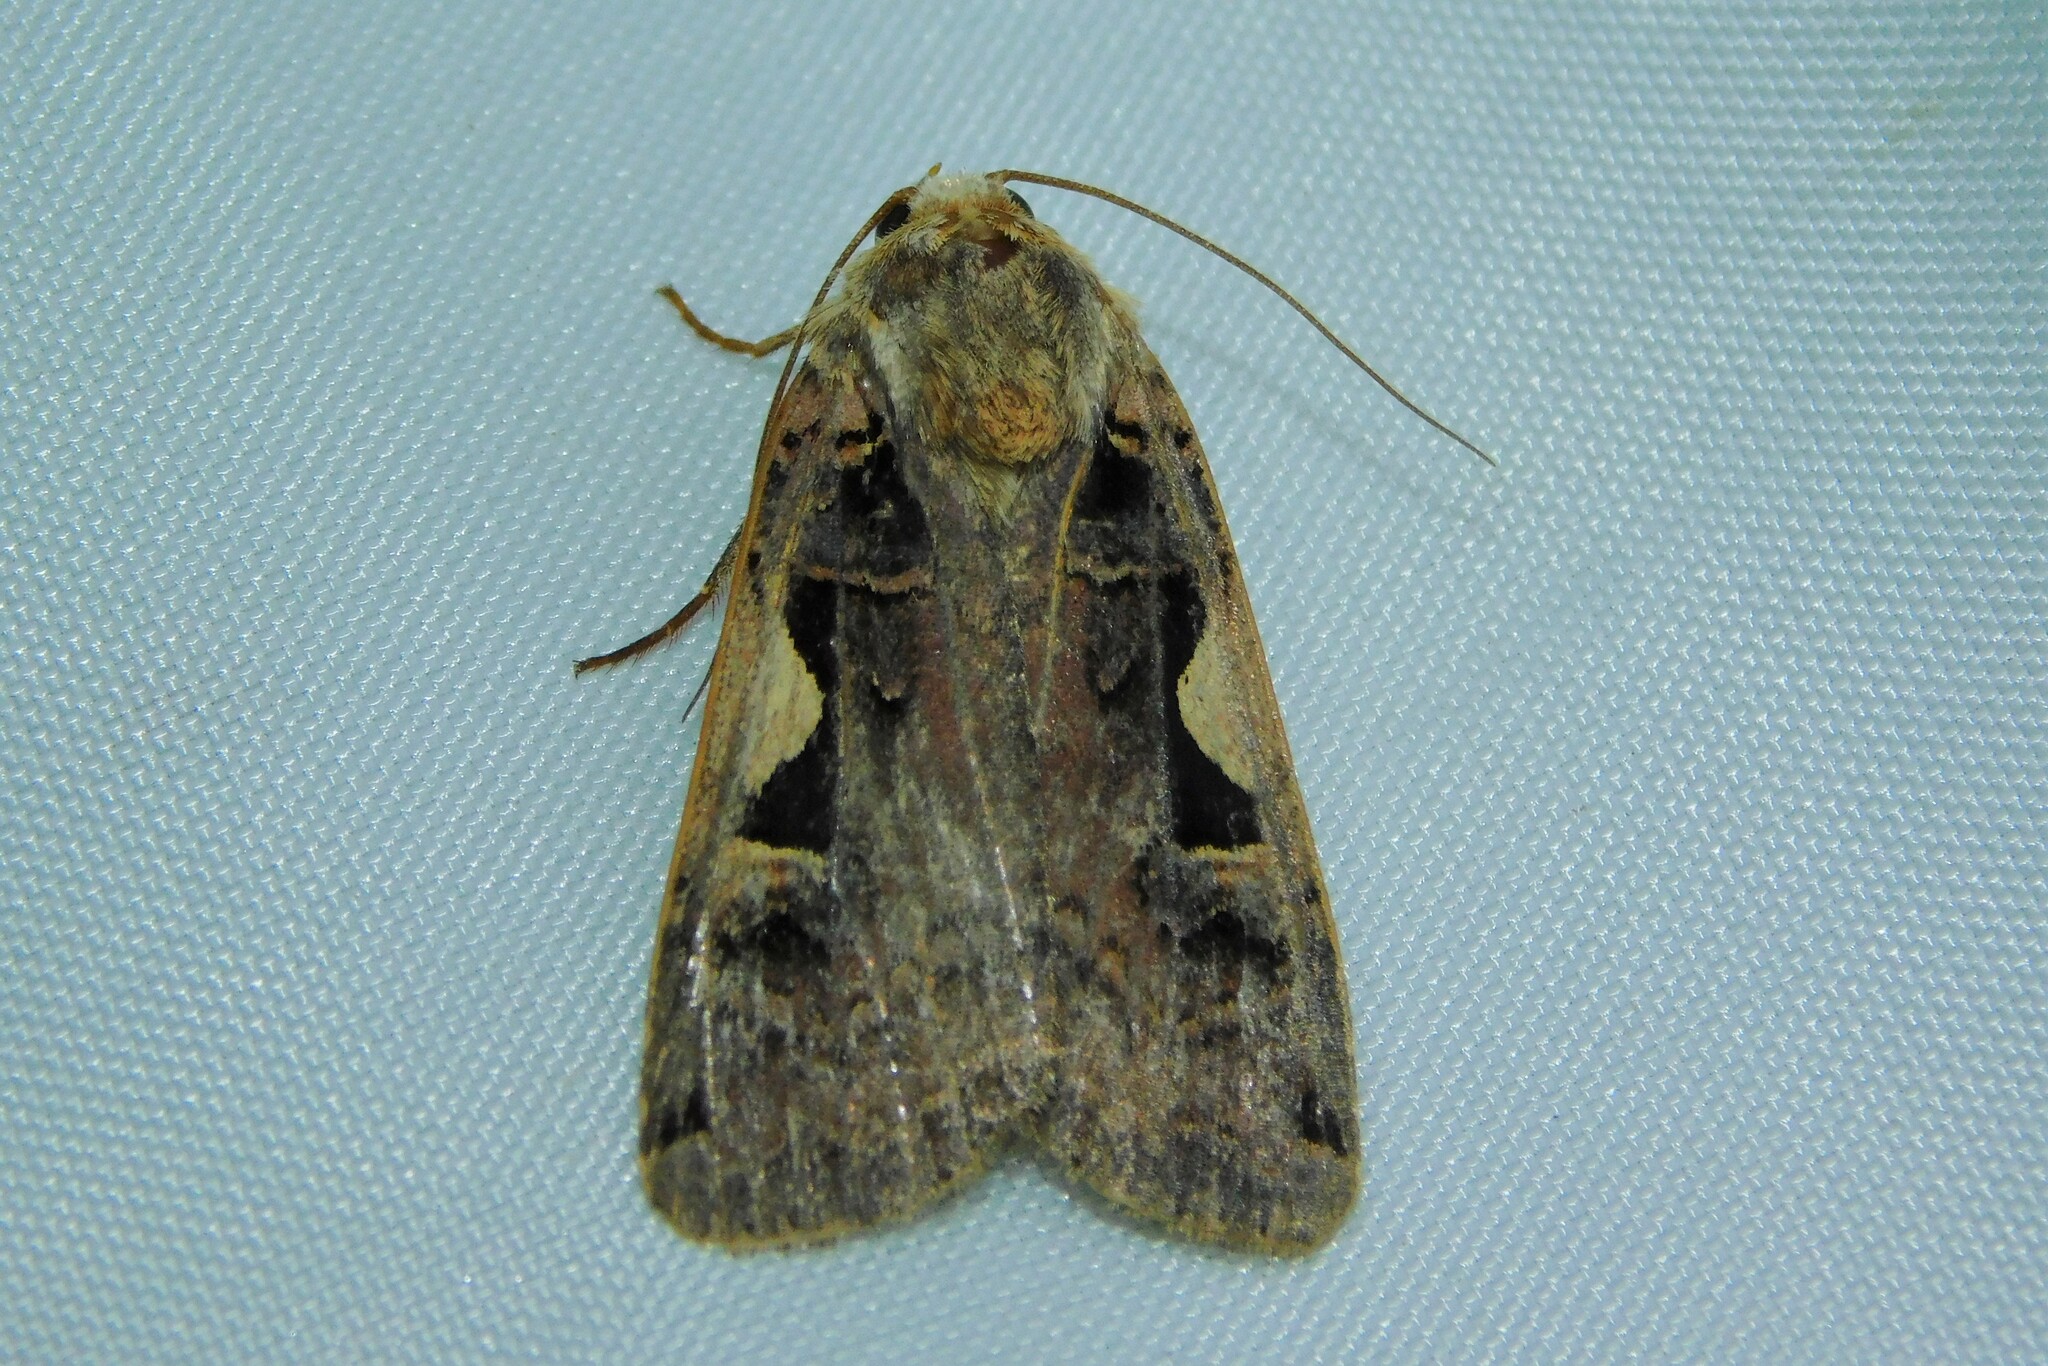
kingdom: Animalia
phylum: Arthropoda
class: Insecta
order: Lepidoptera
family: Noctuidae
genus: Xestia
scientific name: Xestia c-nigrum
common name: Setaceous hebrew character
